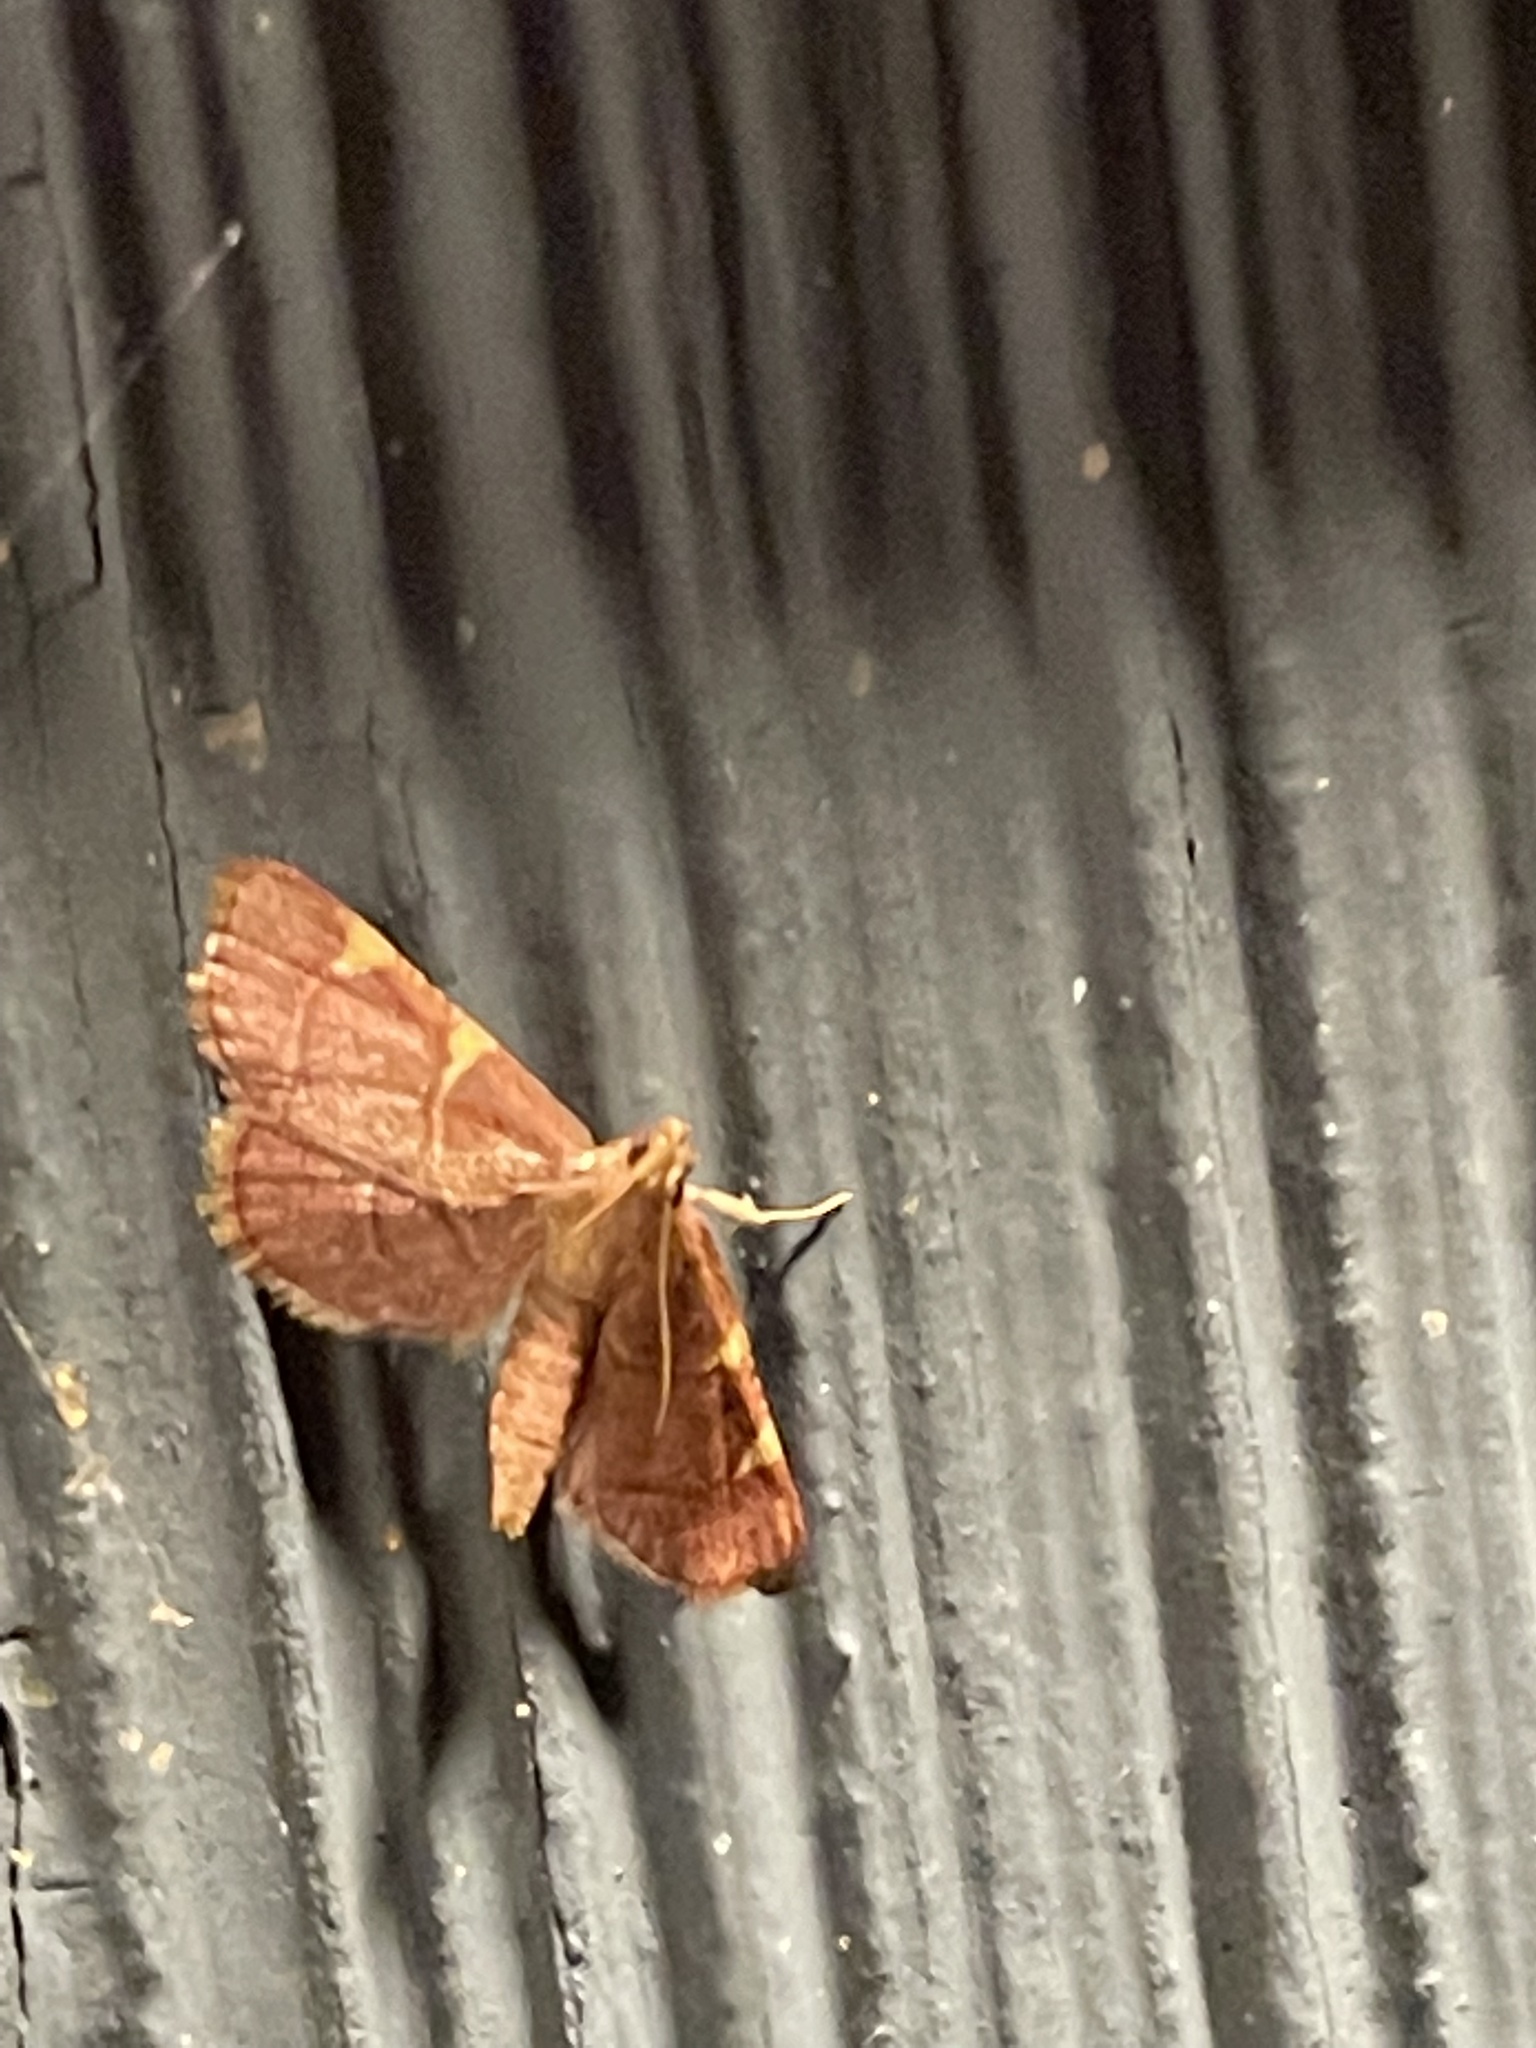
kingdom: Animalia
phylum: Arthropoda
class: Insecta
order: Lepidoptera
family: Pyralidae
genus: Hypsopygia
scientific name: Hypsopygia olinalis
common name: Yellow-fringed dolichomia moth
